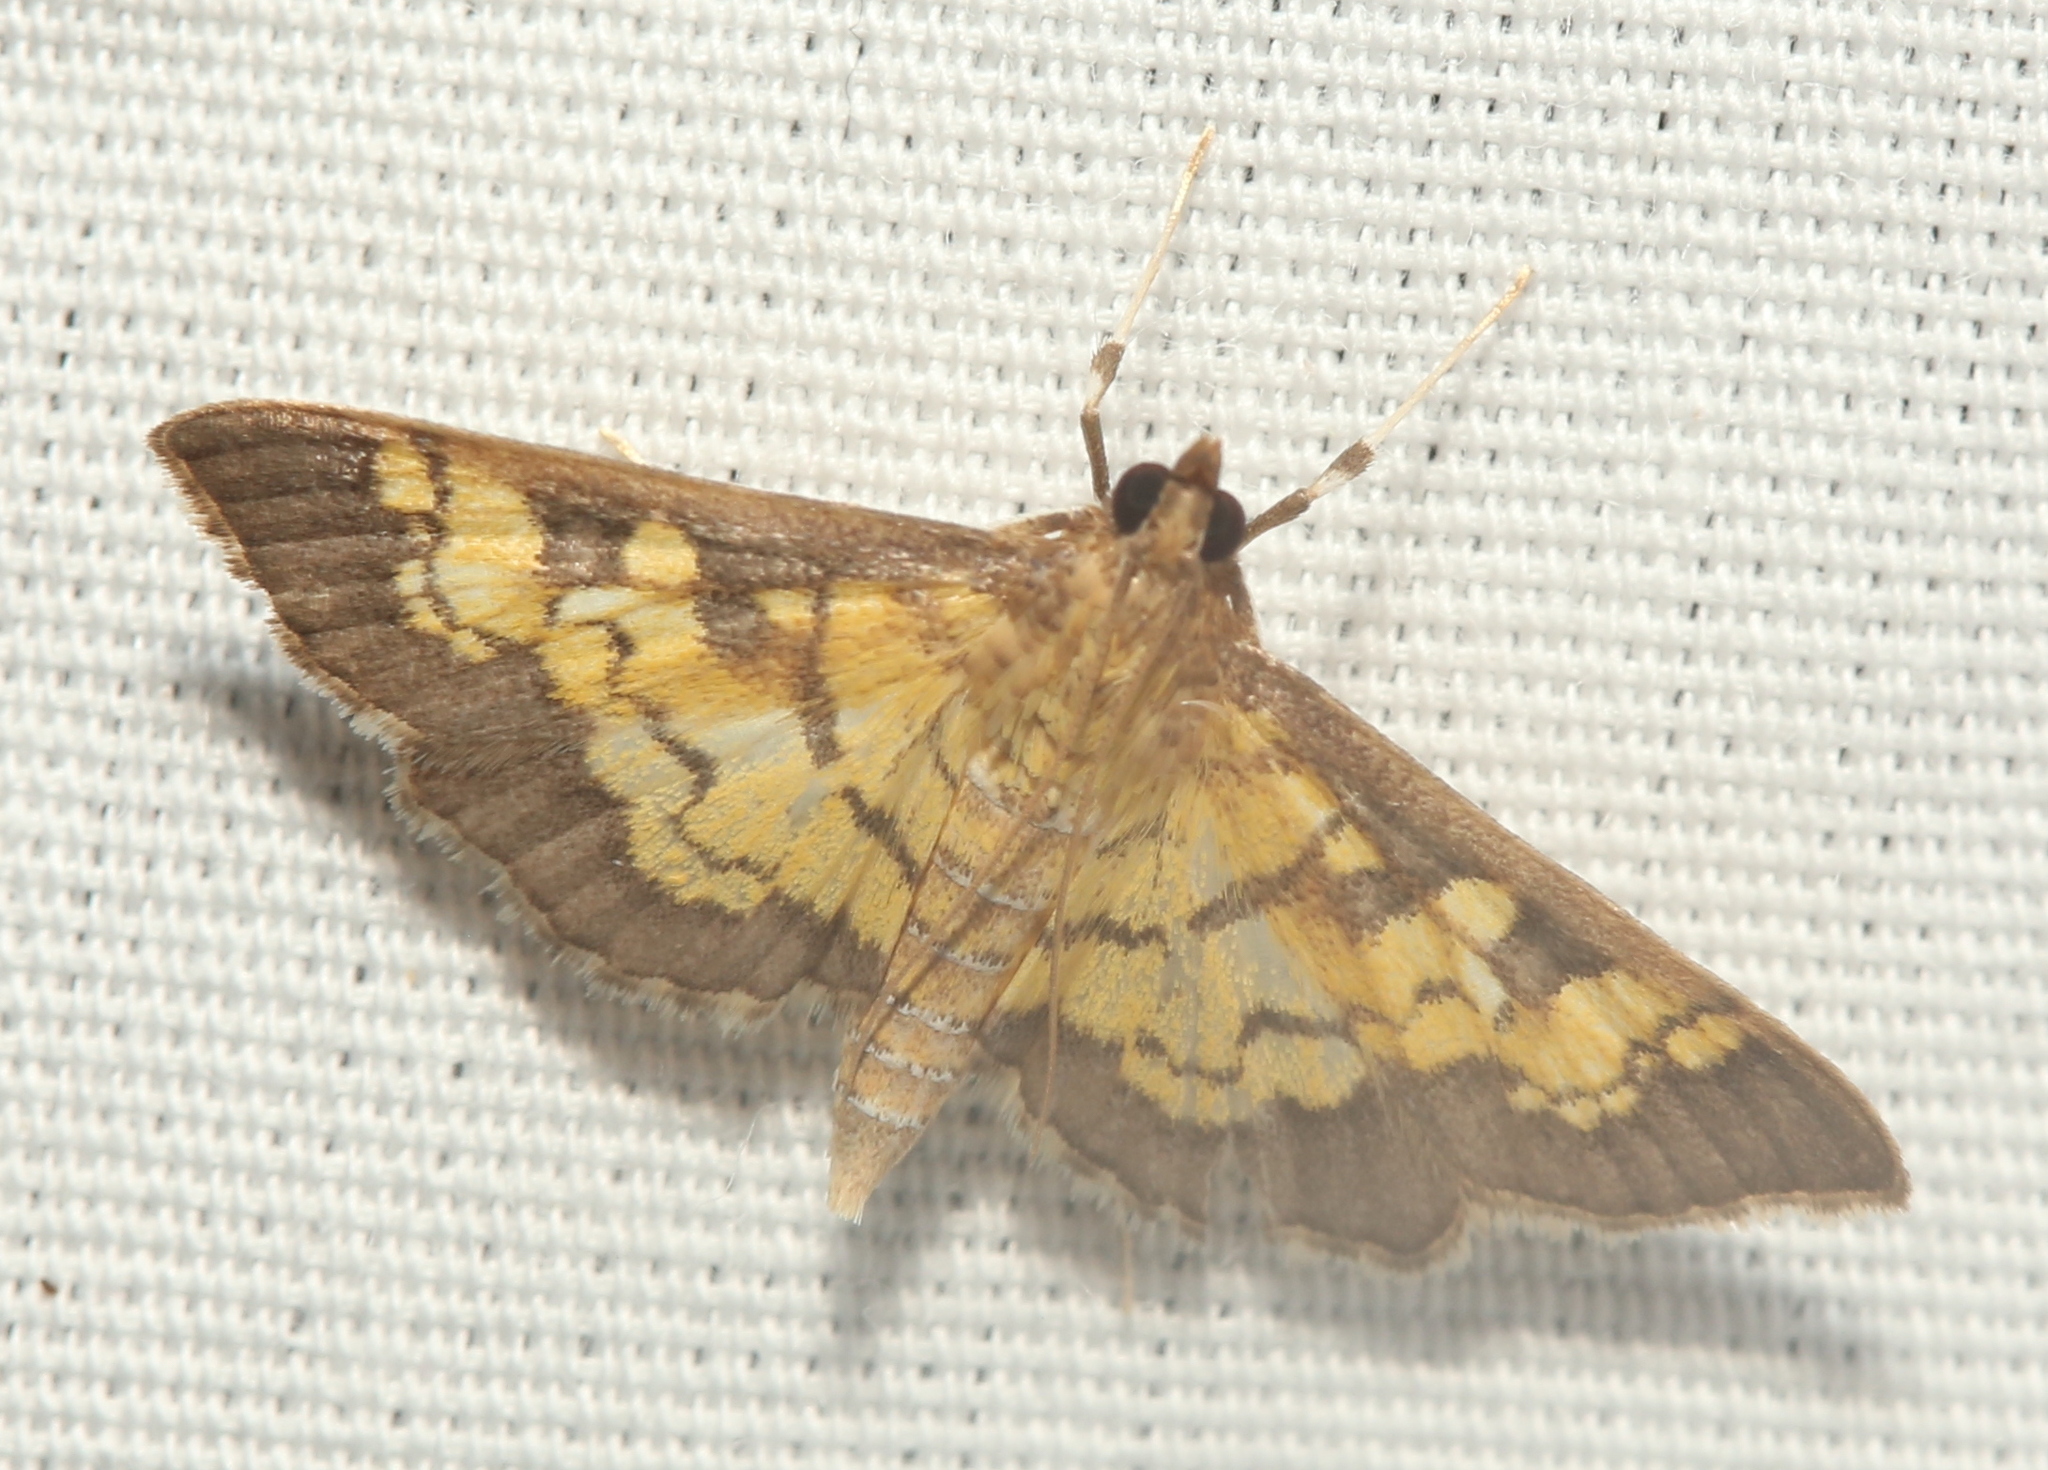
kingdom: Animalia
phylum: Arthropoda
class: Insecta
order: Lepidoptera
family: Crambidae
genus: Epipagis
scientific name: Epipagis adipaloides
